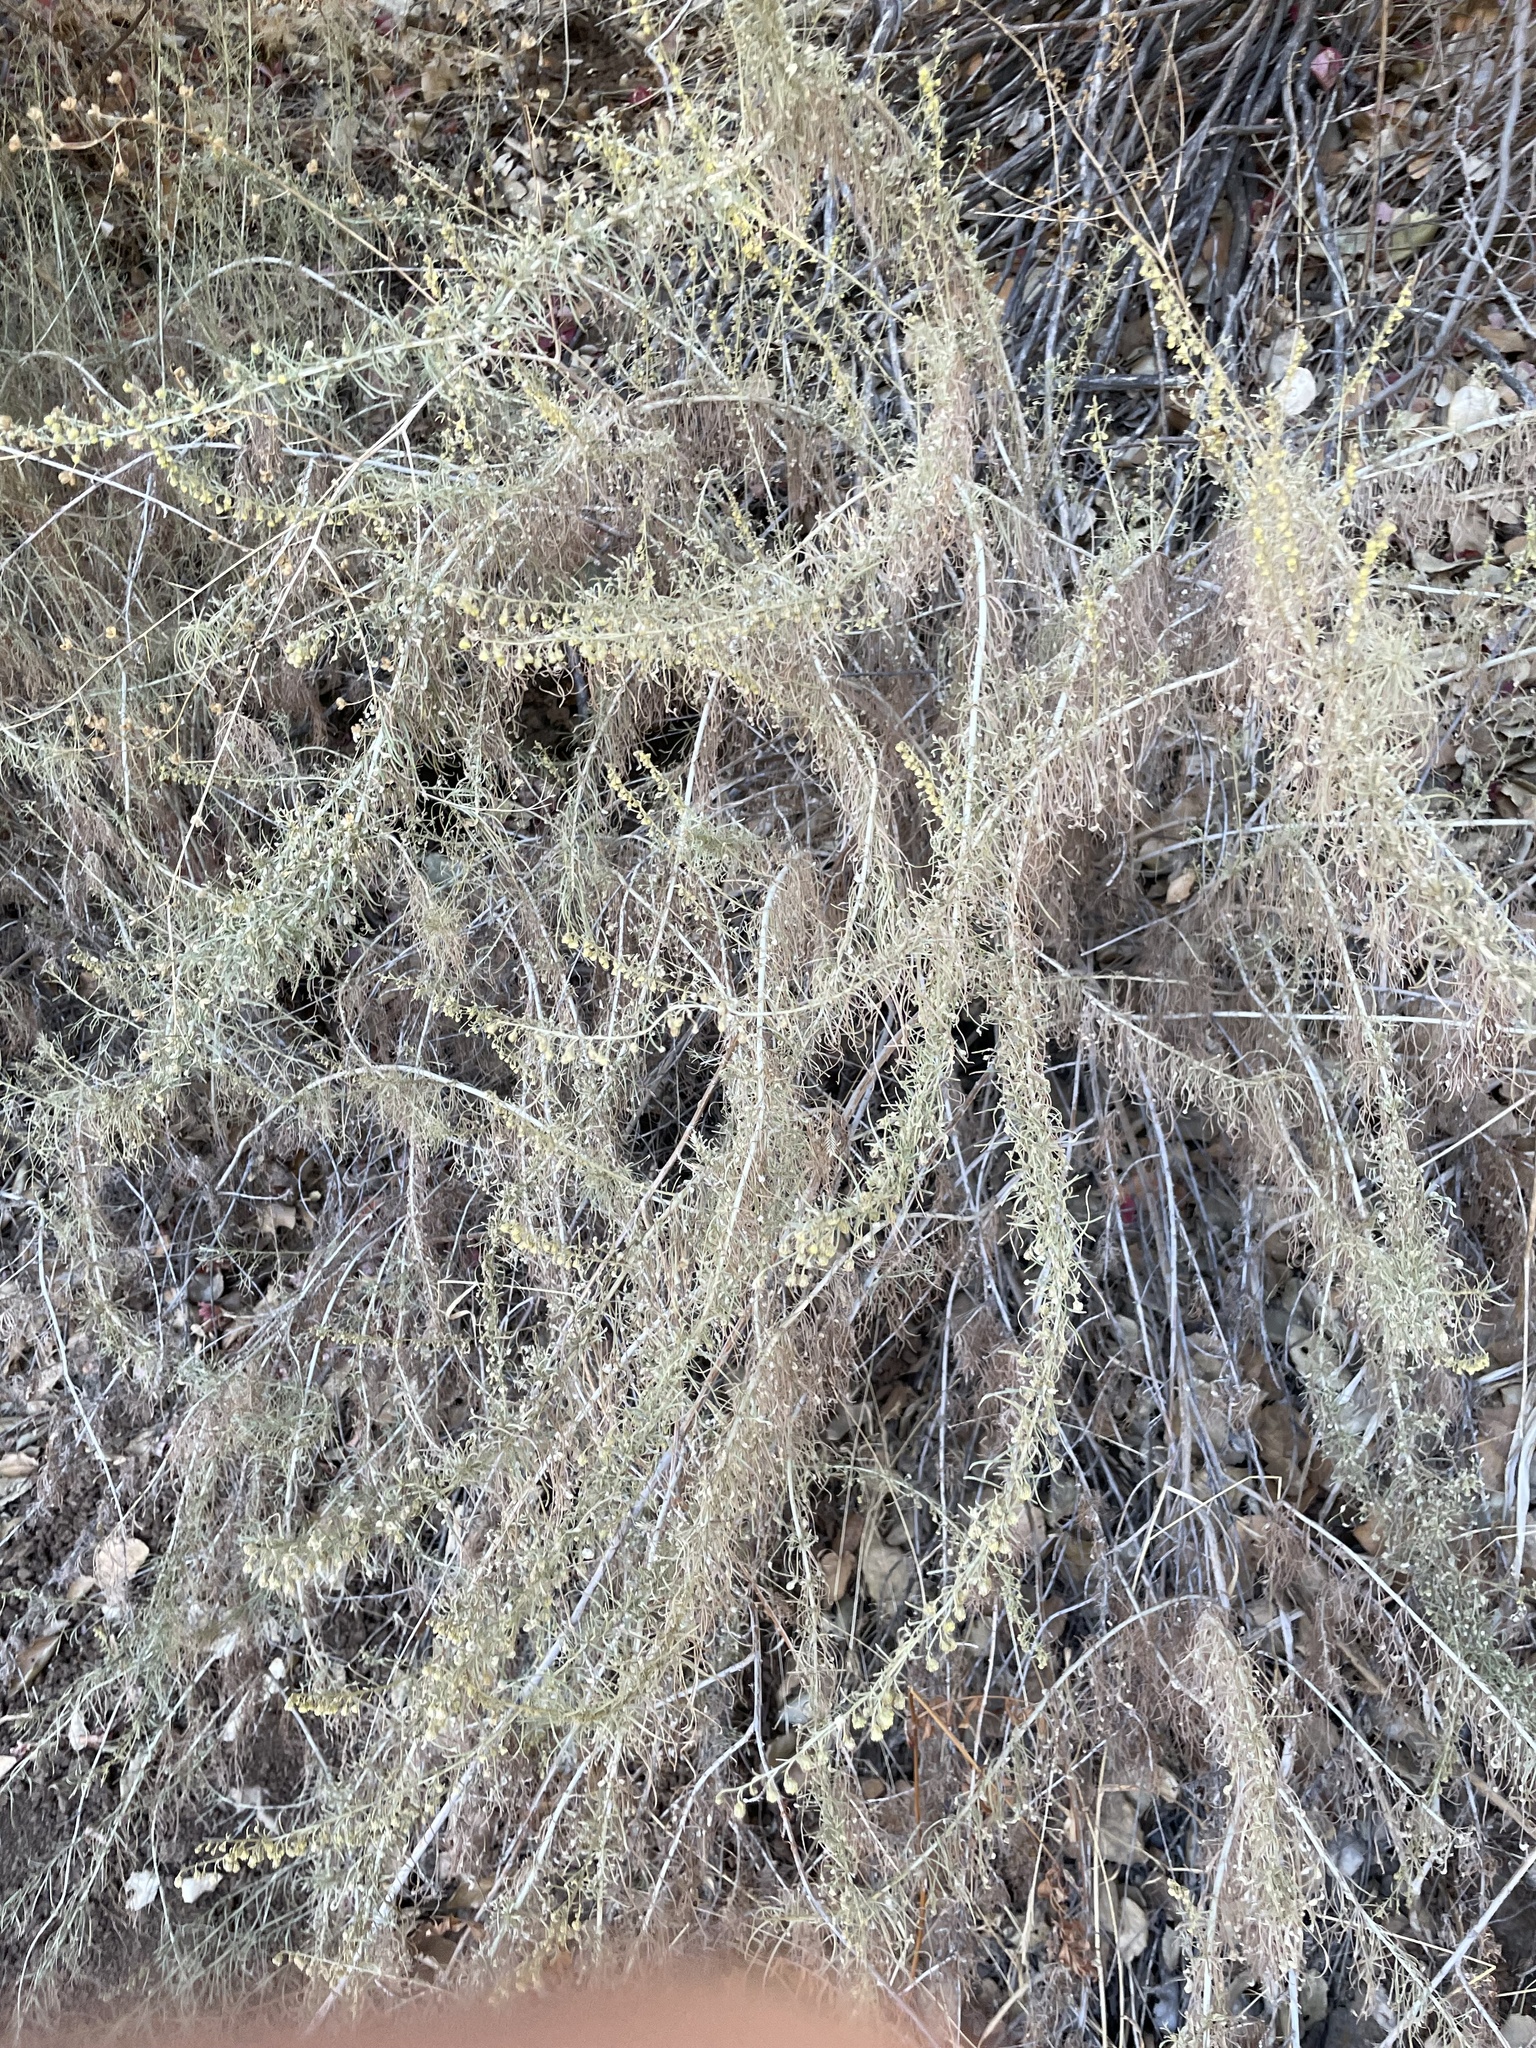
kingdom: Plantae
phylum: Tracheophyta
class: Magnoliopsida
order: Asterales
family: Asteraceae
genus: Artemisia
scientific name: Artemisia californica
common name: California sagebrush
